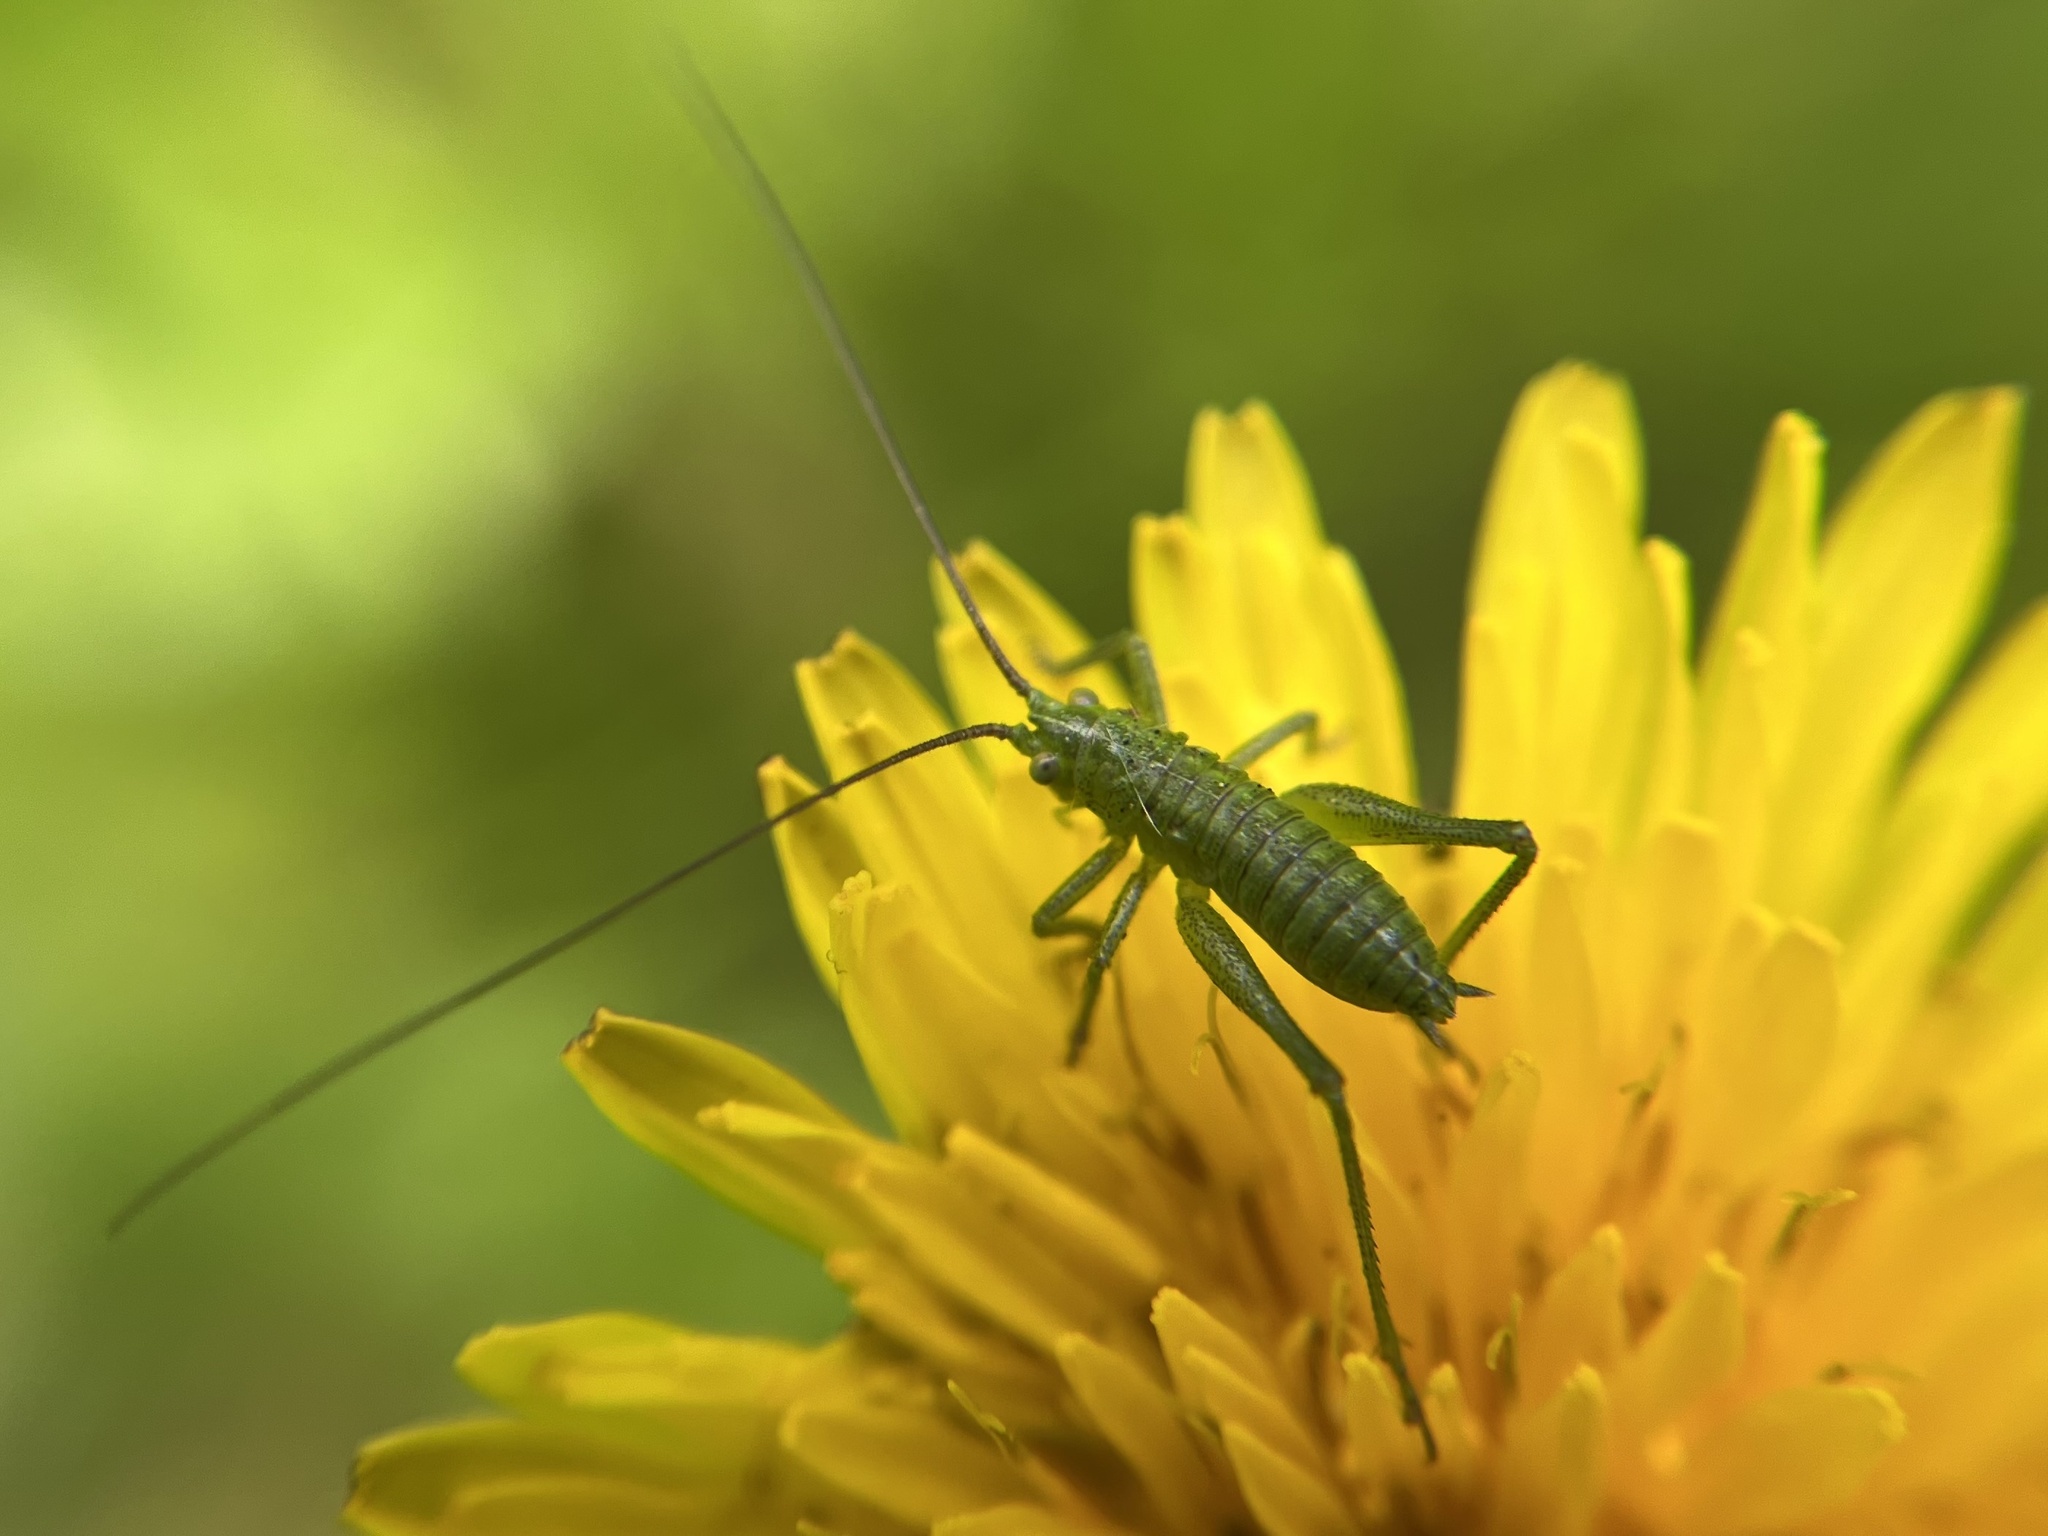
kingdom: Animalia
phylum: Arthropoda
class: Insecta
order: Orthoptera
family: Tettigoniidae
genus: Tettigonia
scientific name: Tettigonia viridissima
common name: Great green bush-cricket
